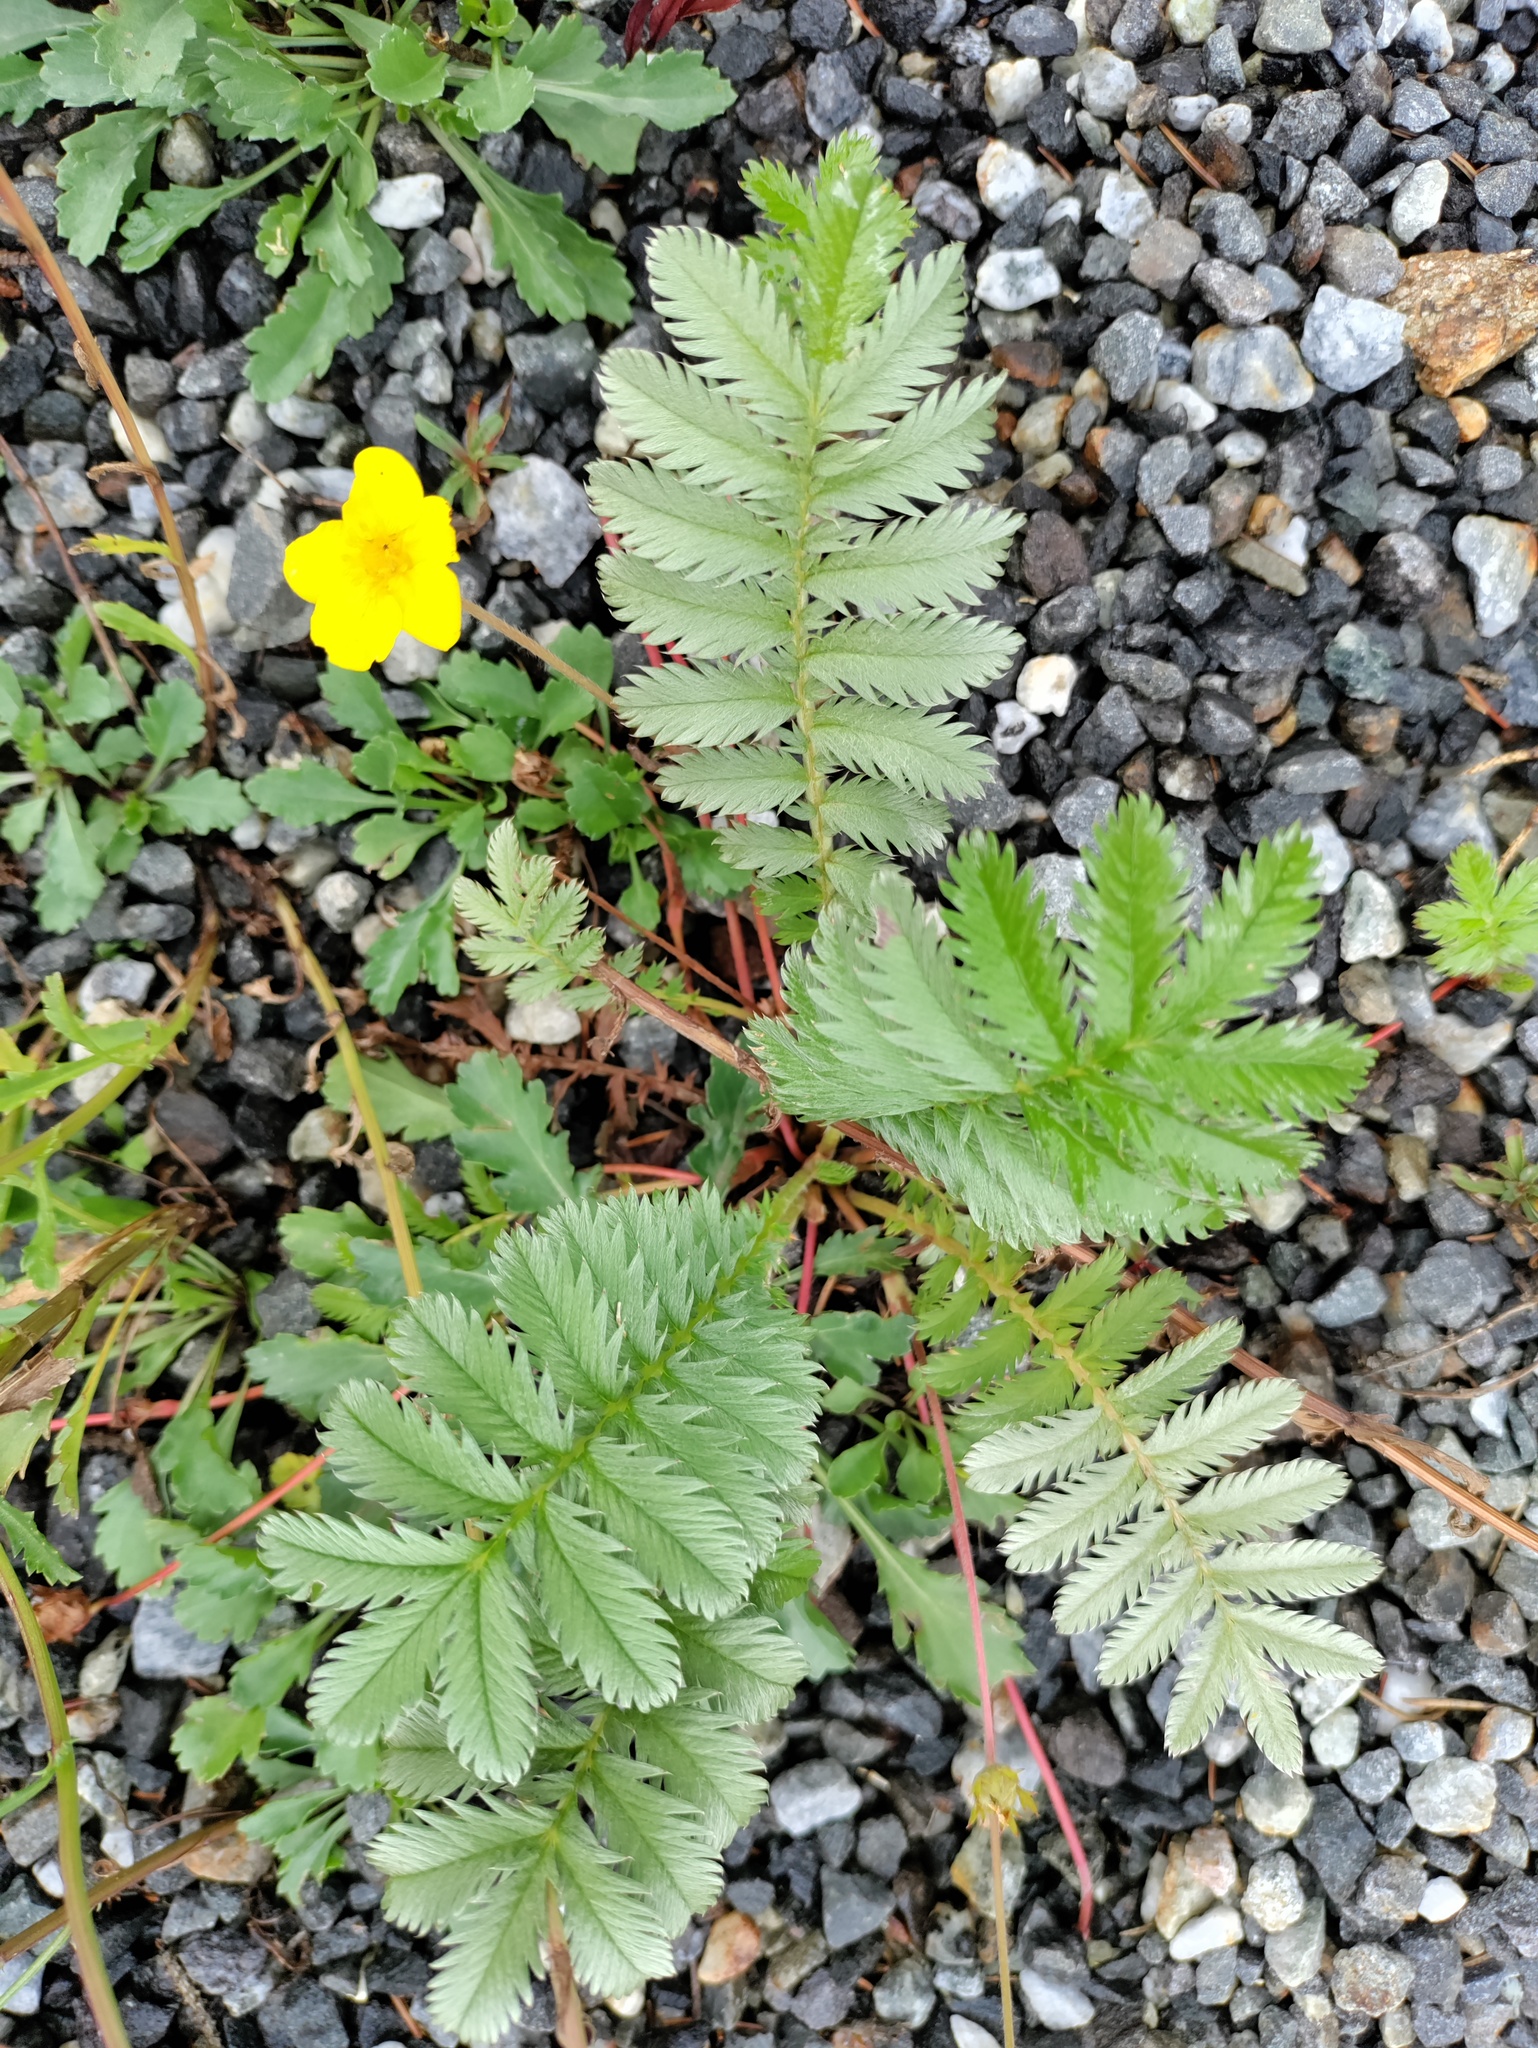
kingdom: Plantae
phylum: Tracheophyta
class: Magnoliopsida
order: Rosales
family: Rosaceae
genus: Argentina
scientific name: Argentina anserina
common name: Common silverweed
